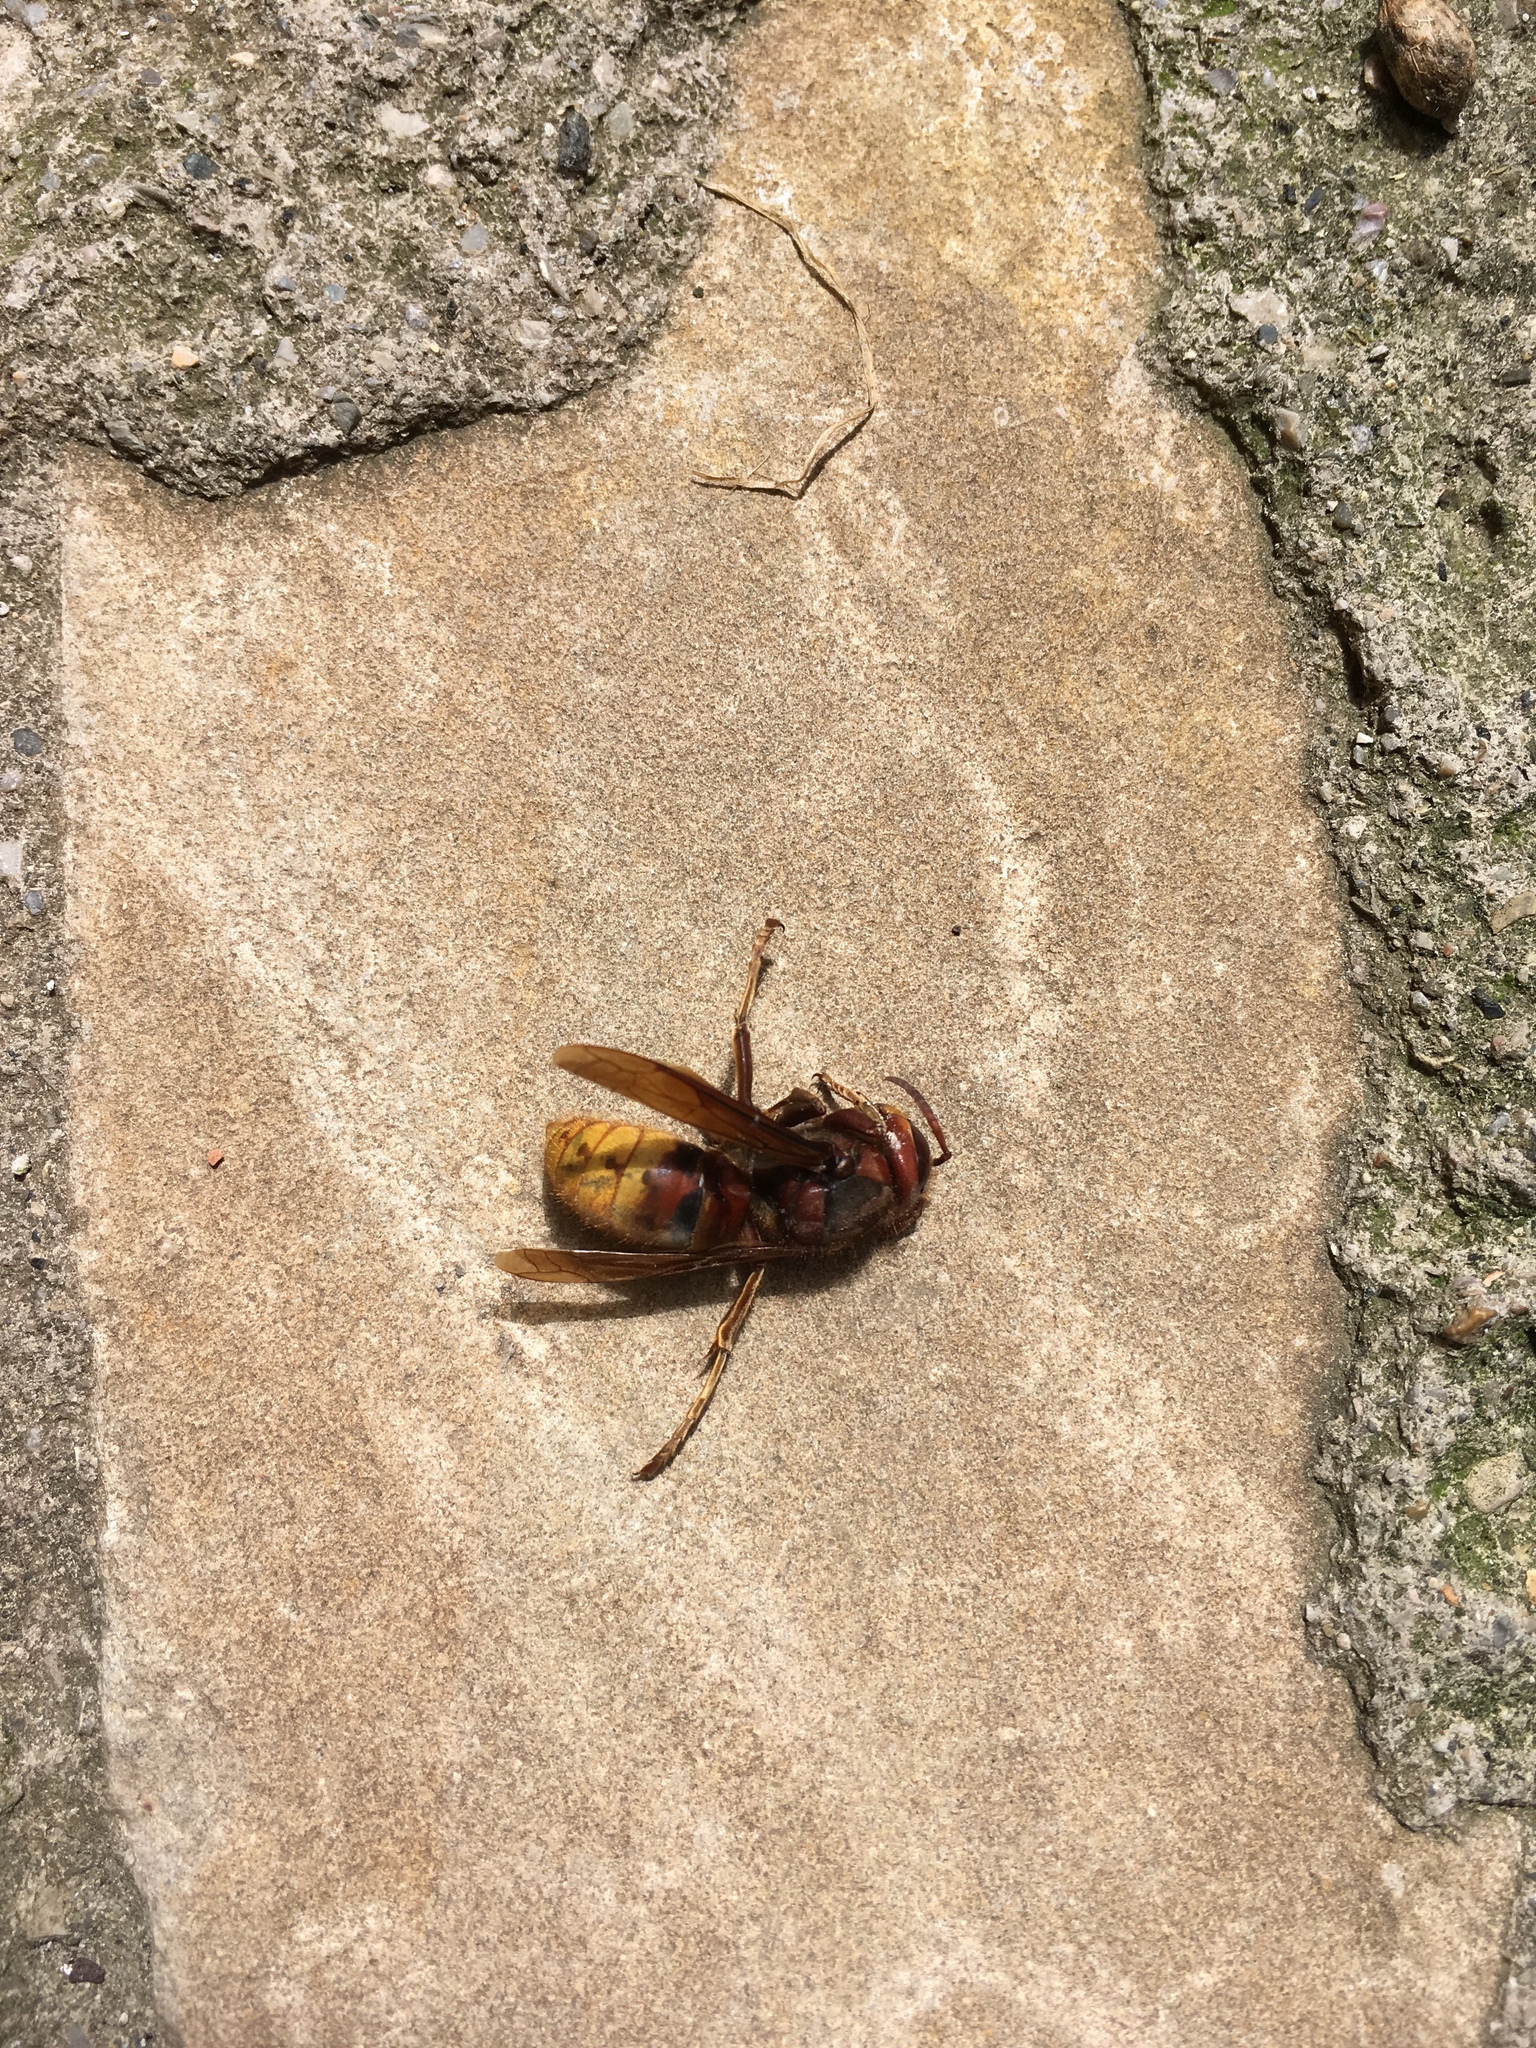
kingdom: Animalia
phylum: Arthropoda
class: Insecta
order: Hymenoptera
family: Vespidae
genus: Vespa
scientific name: Vespa crabro
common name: Hornet
